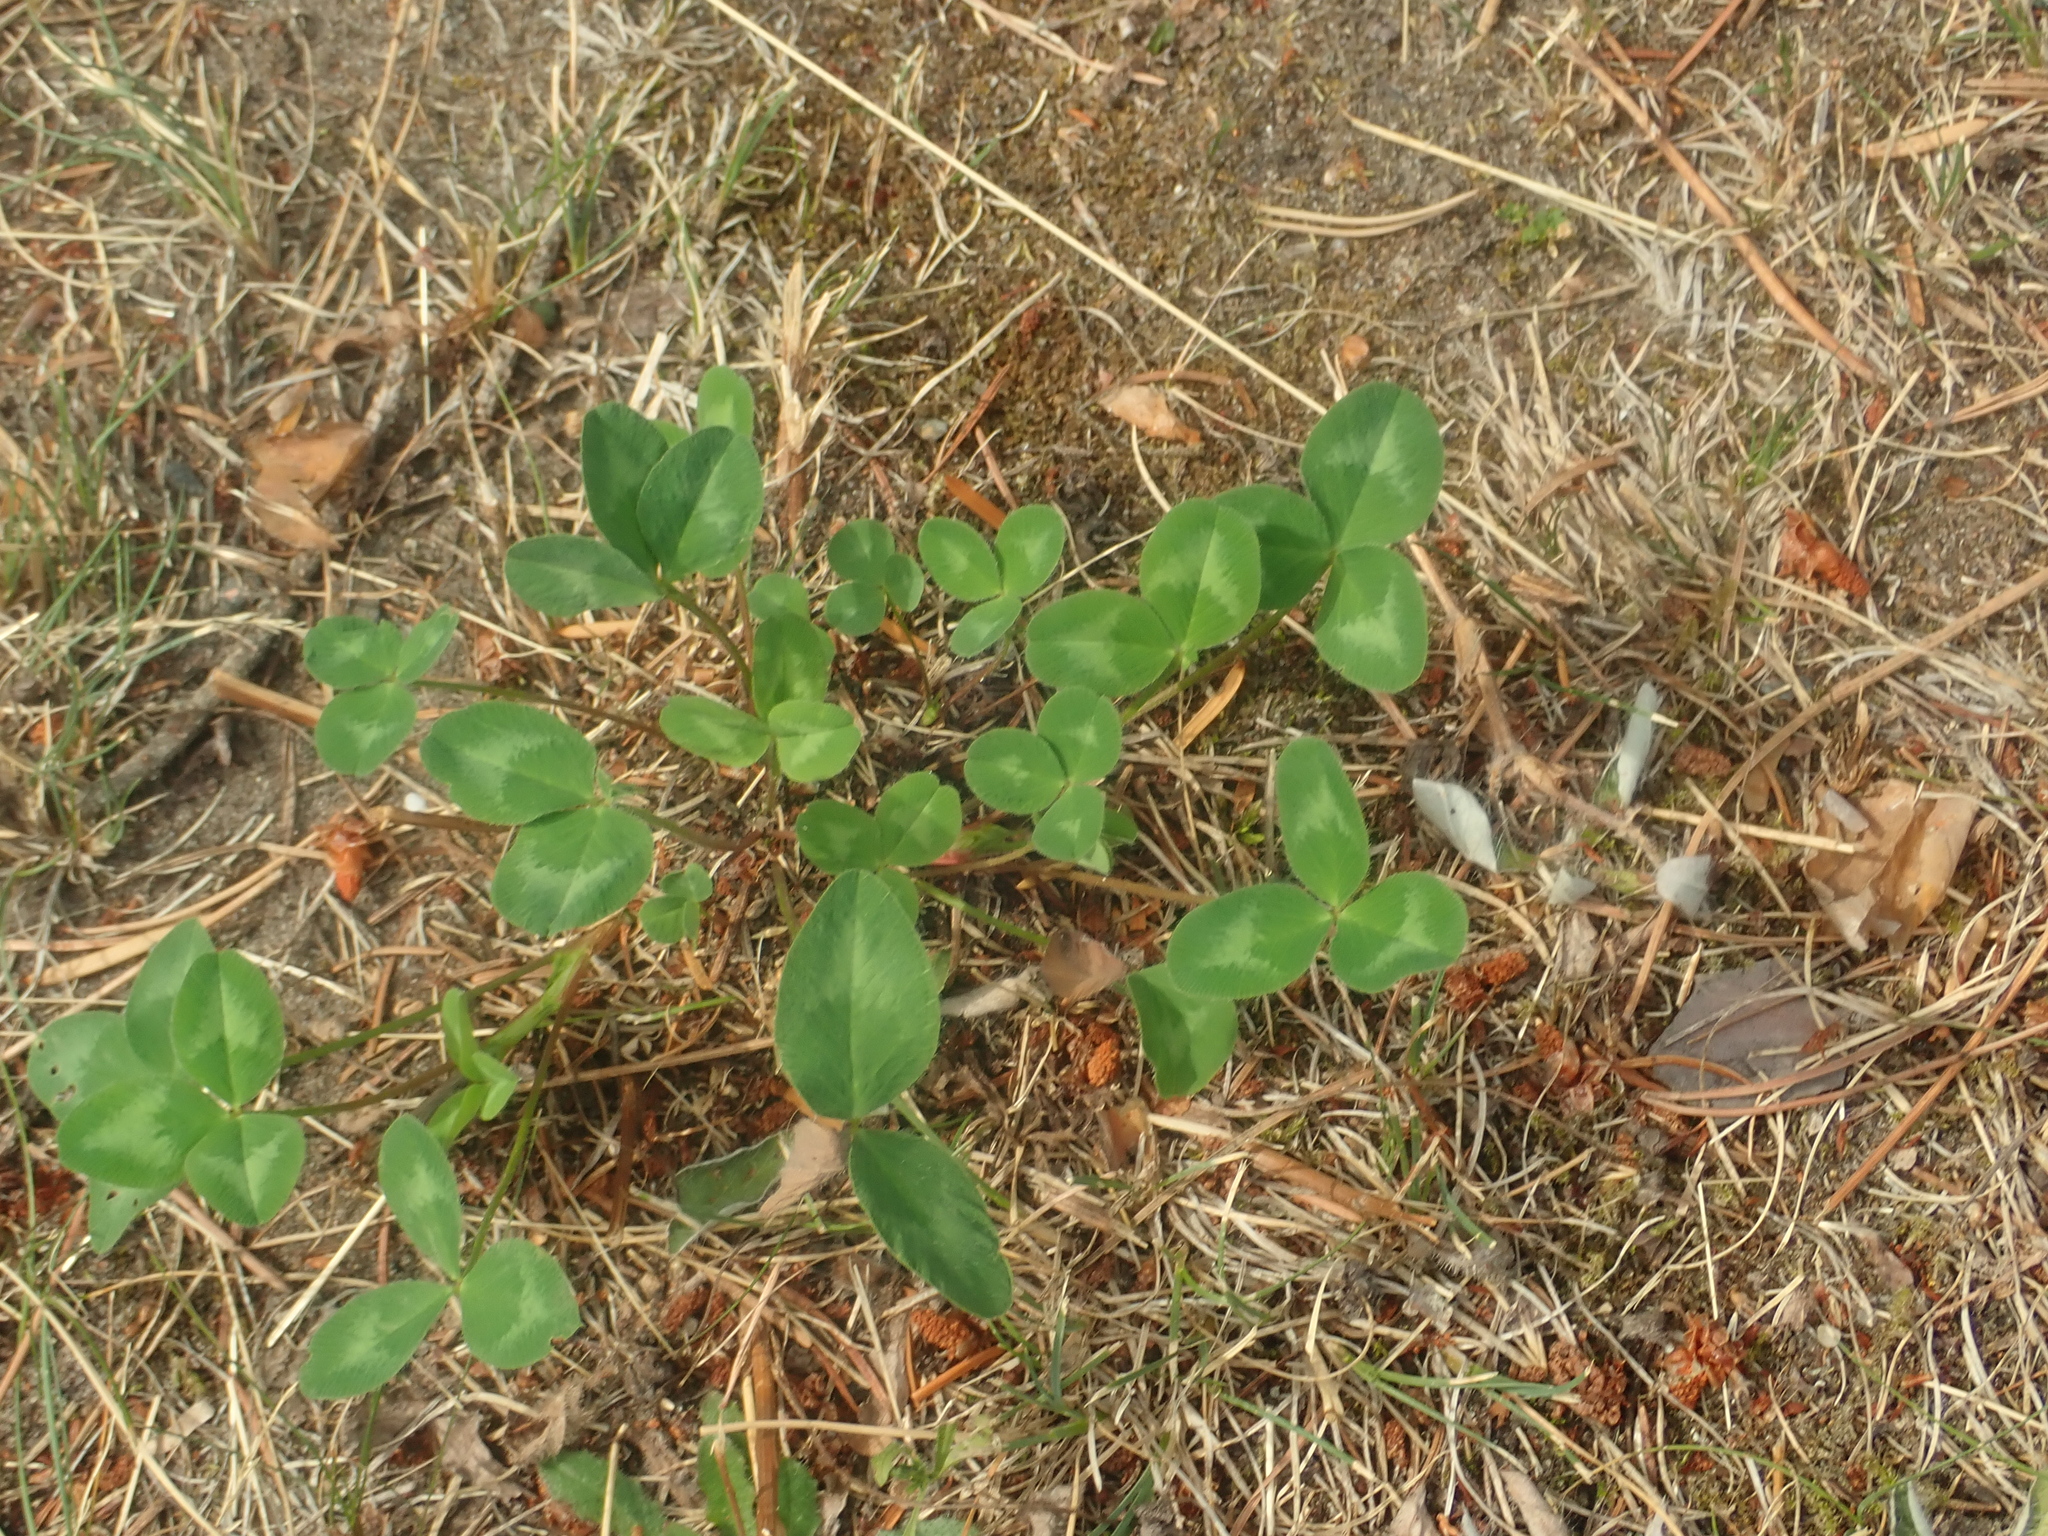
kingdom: Plantae
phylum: Tracheophyta
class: Magnoliopsida
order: Fabales
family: Fabaceae
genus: Trifolium
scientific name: Trifolium pratense
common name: Red clover
